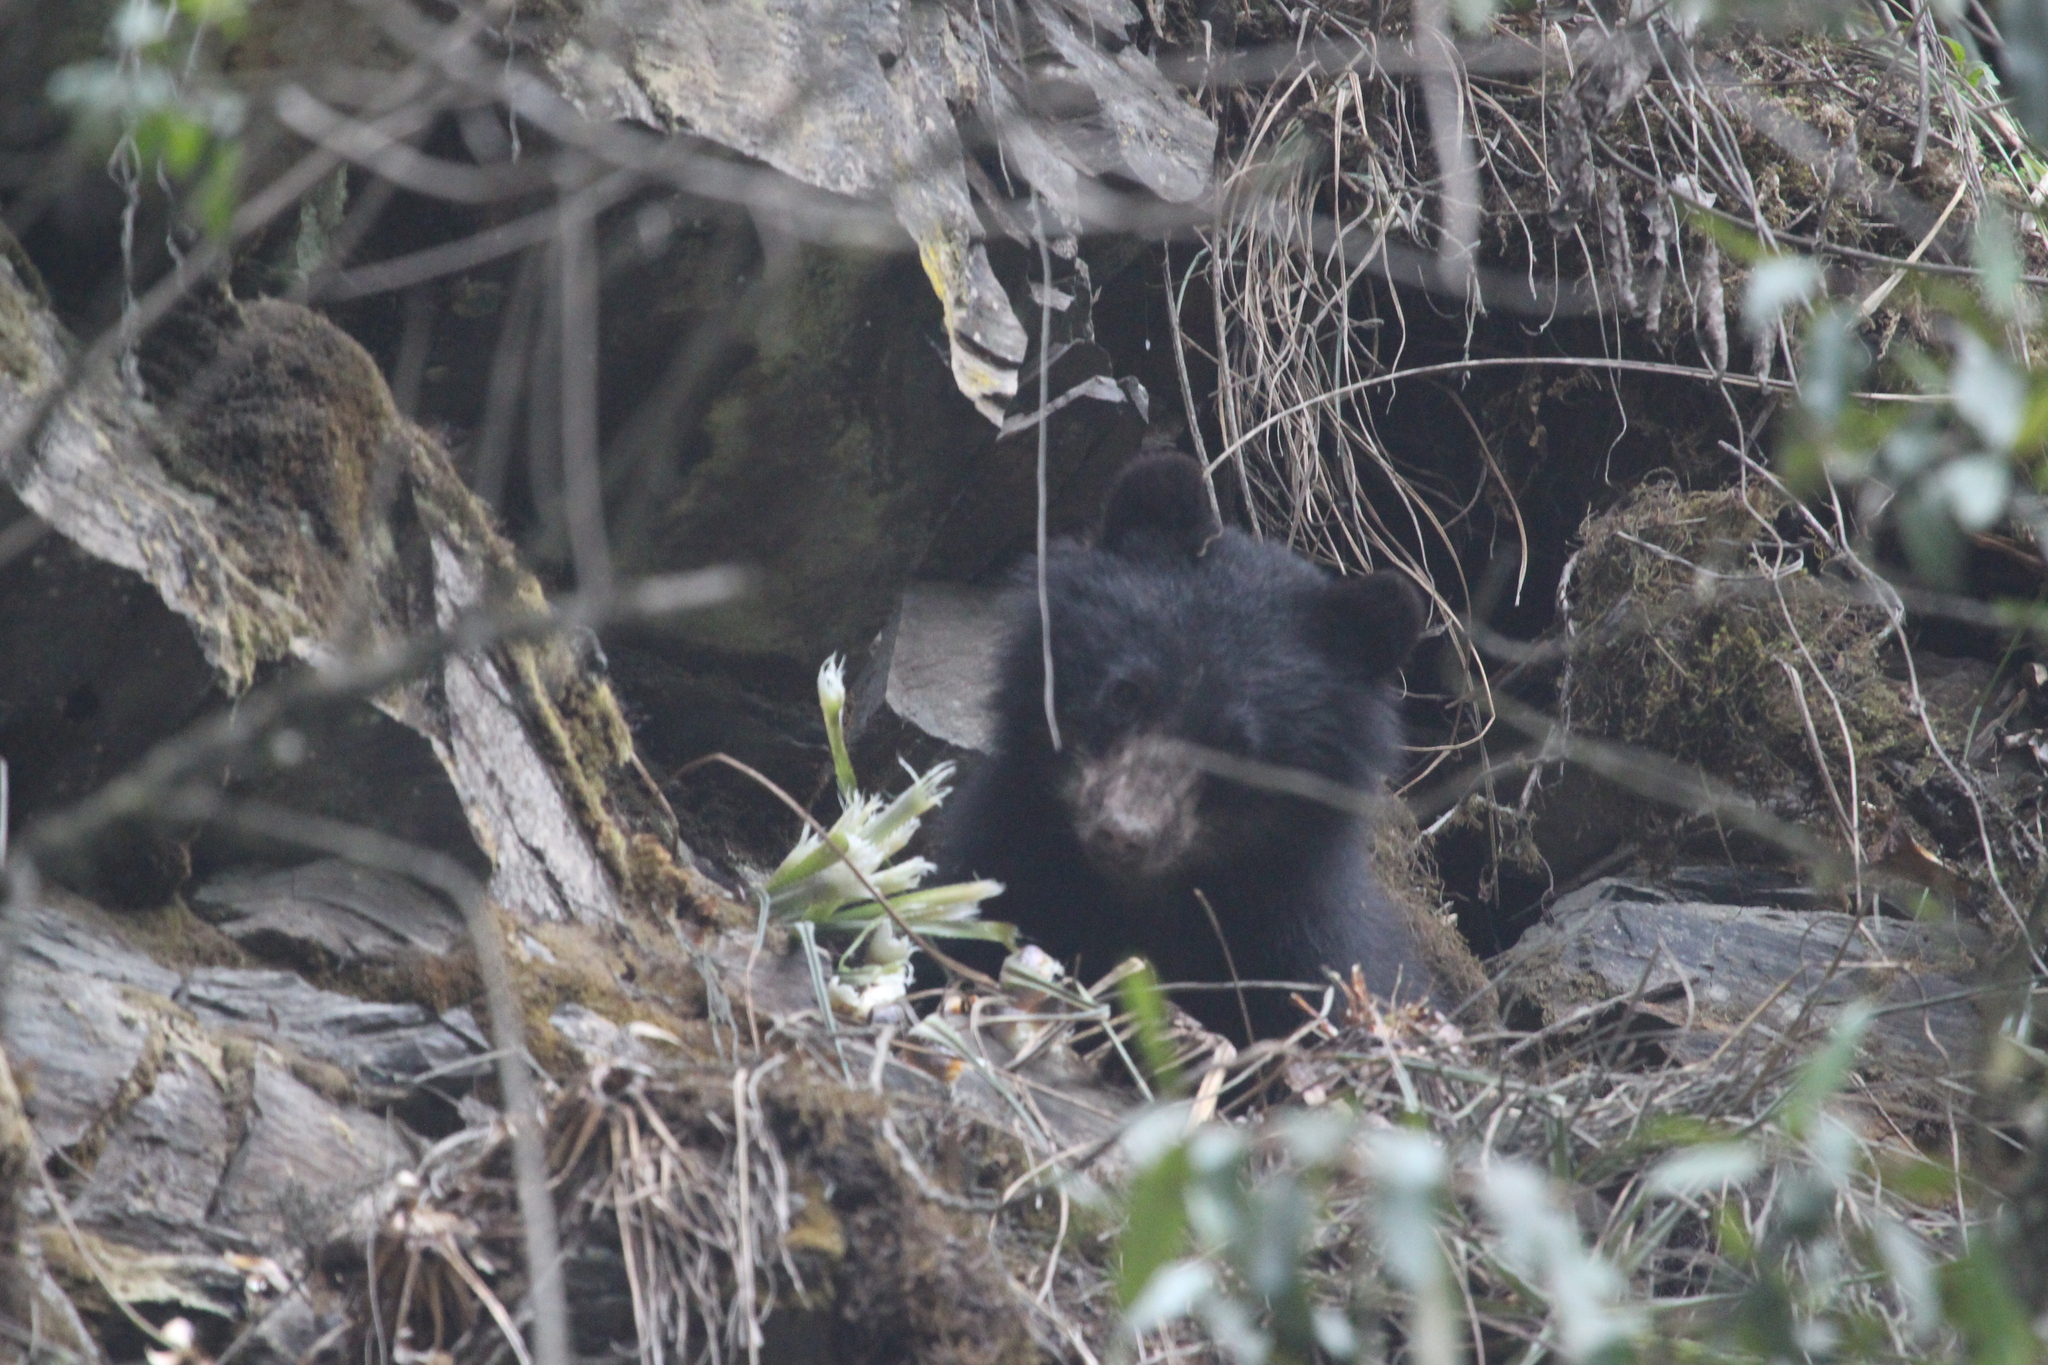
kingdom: Animalia
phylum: Chordata
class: Mammalia
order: Carnivora
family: Ursidae
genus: Tremarctos
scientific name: Tremarctos ornatus
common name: Spectacled bear
